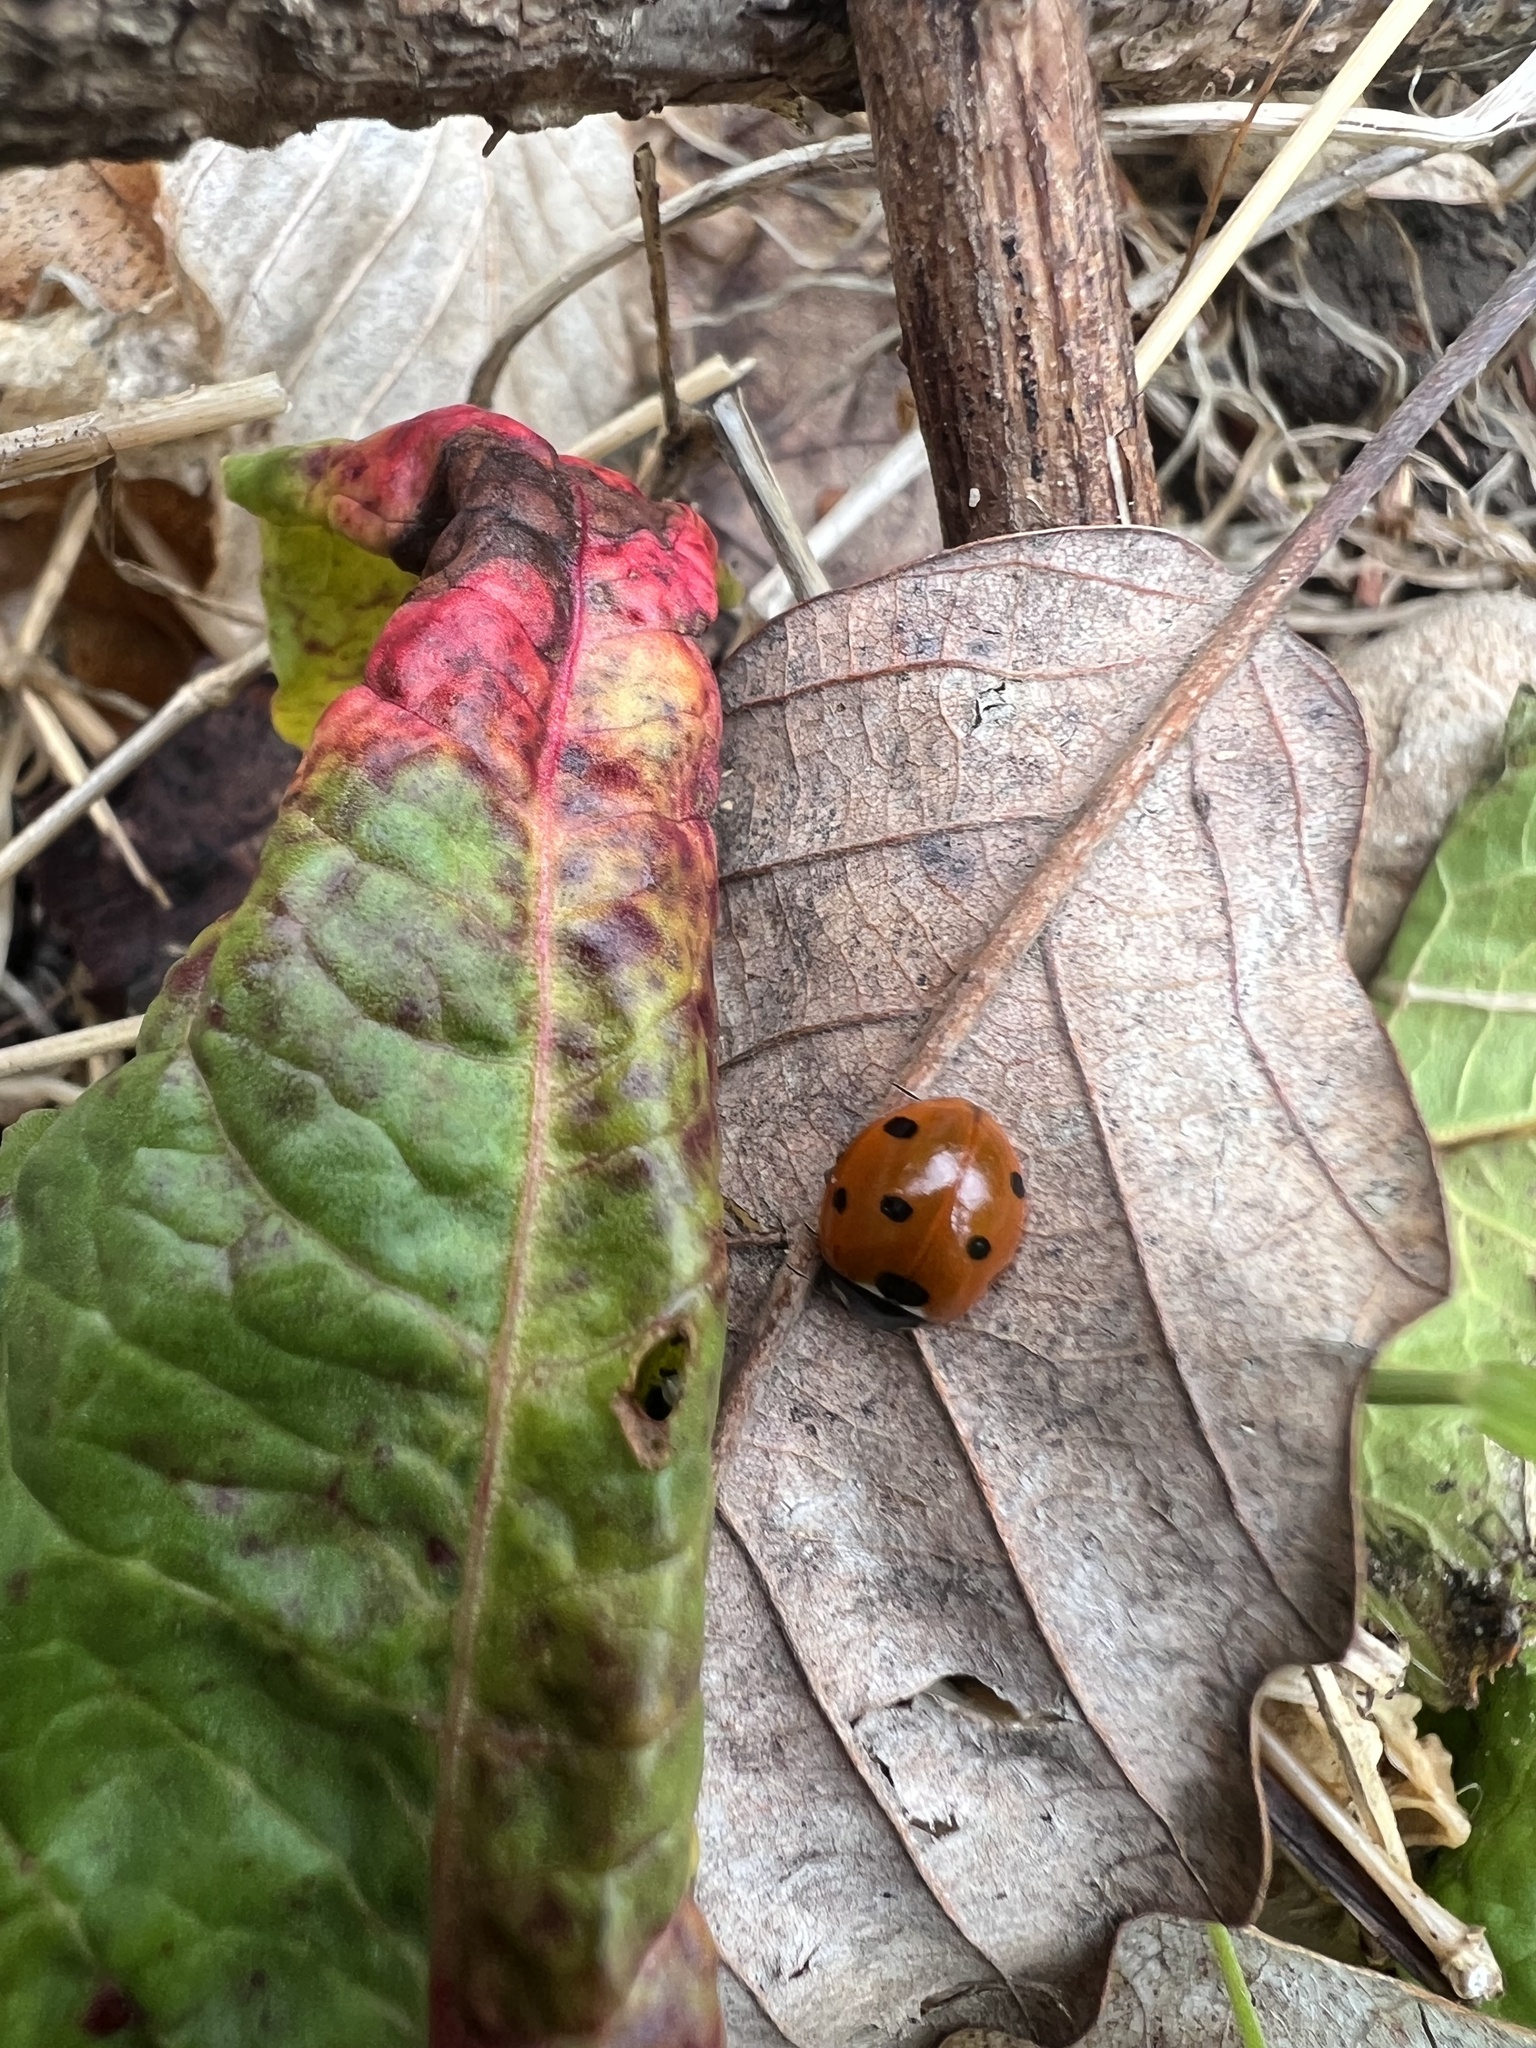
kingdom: Animalia
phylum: Arthropoda
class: Insecta
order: Coleoptera
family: Coccinellidae
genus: Coccinella
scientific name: Coccinella septempunctata
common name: Sevenspotted lady beetle
